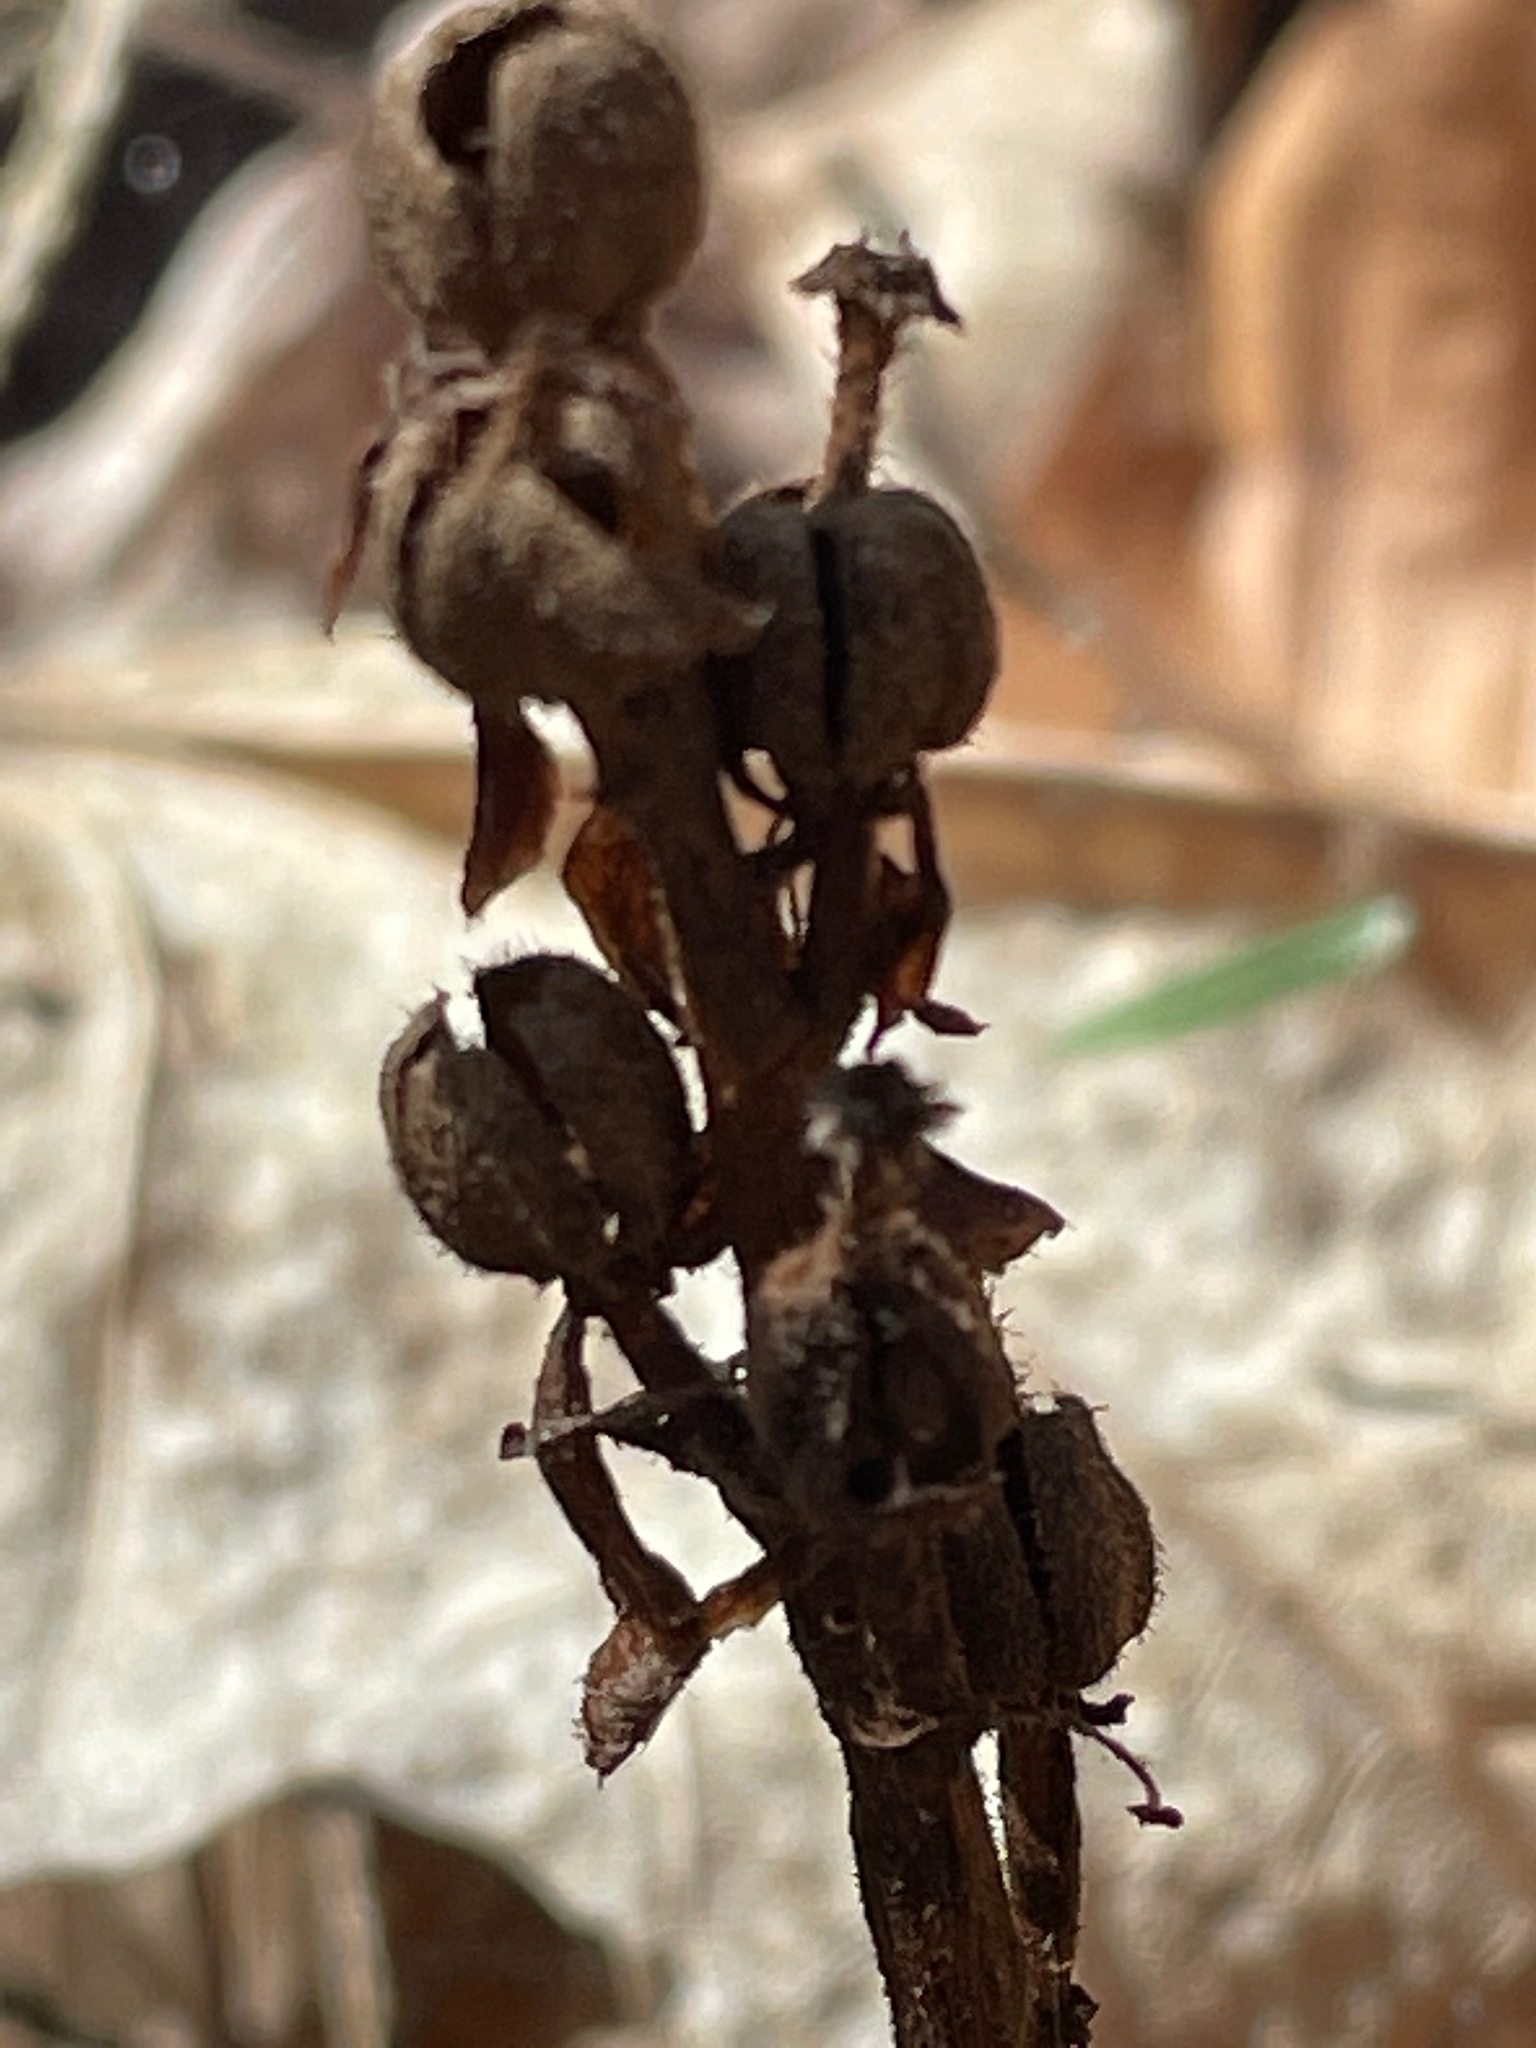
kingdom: Plantae
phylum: Tracheophyta
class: Magnoliopsida
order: Ericales
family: Ericaceae
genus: Hypopitys
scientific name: Hypopitys monotropa
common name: Yellow bird's-nest
